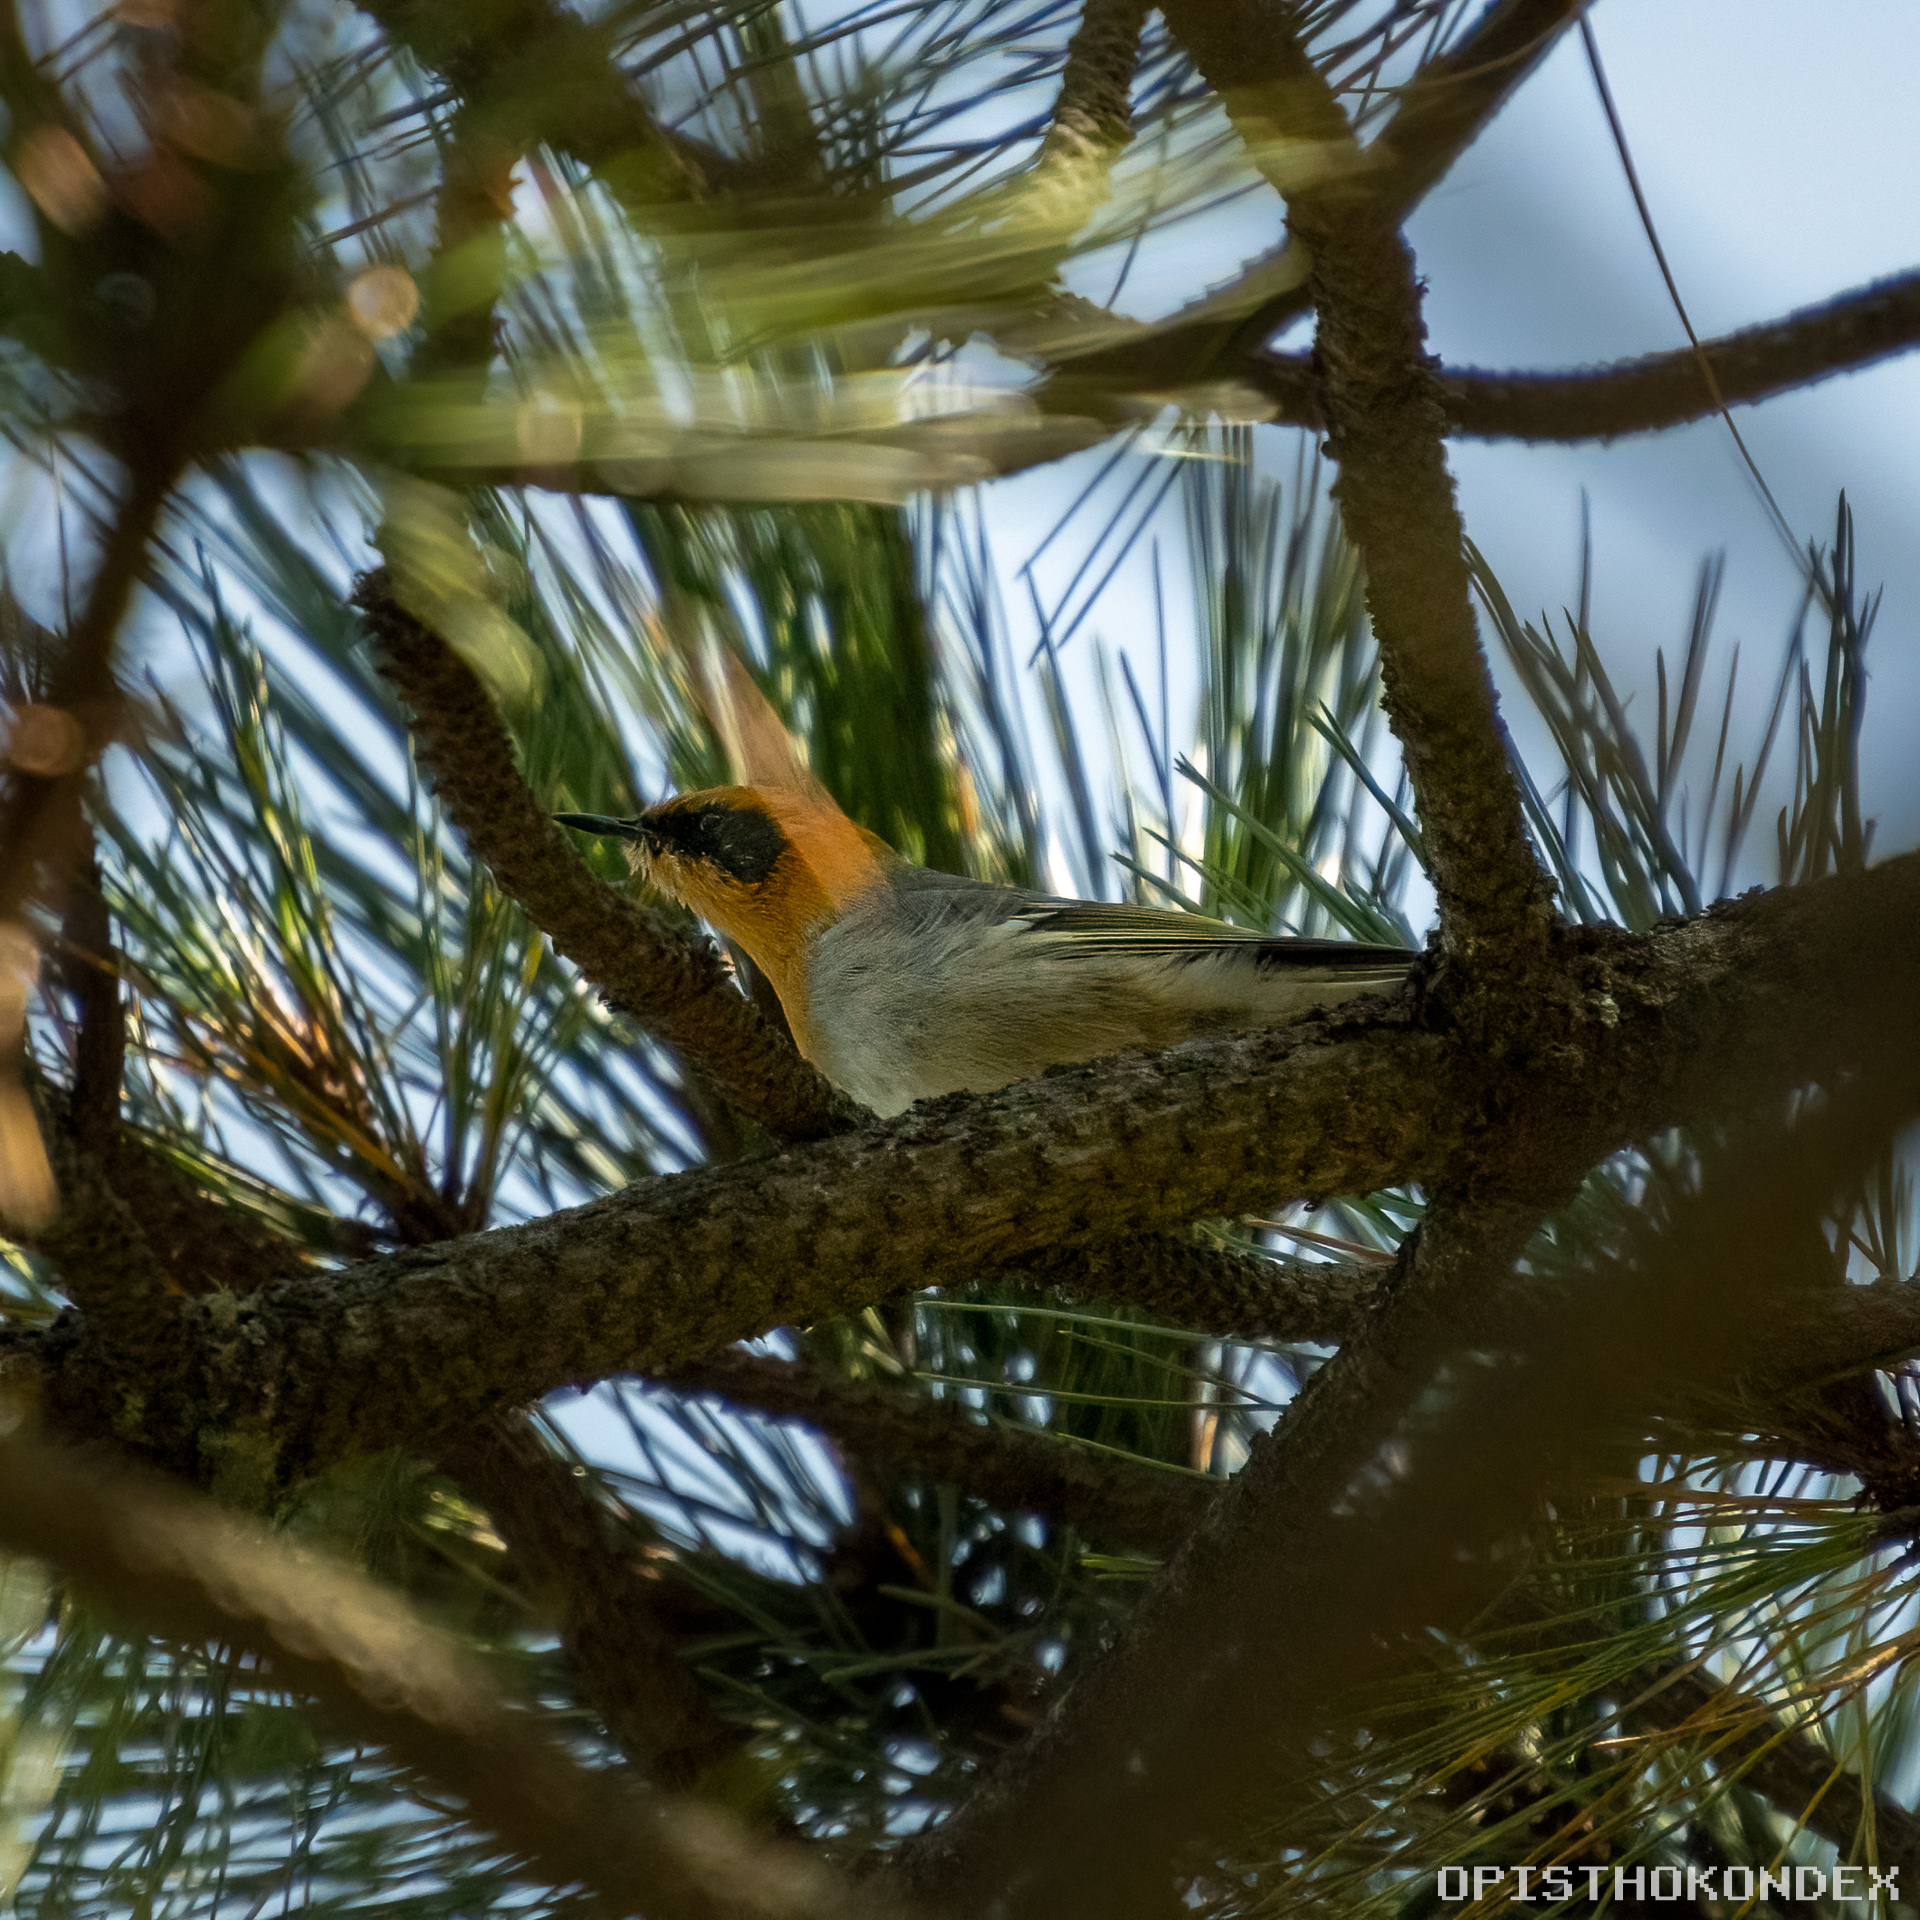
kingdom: Animalia
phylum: Chordata
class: Aves
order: Passeriformes
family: Peucedramidae
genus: Peucedramus
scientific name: Peucedramus taeniatus
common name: Olive warbler
